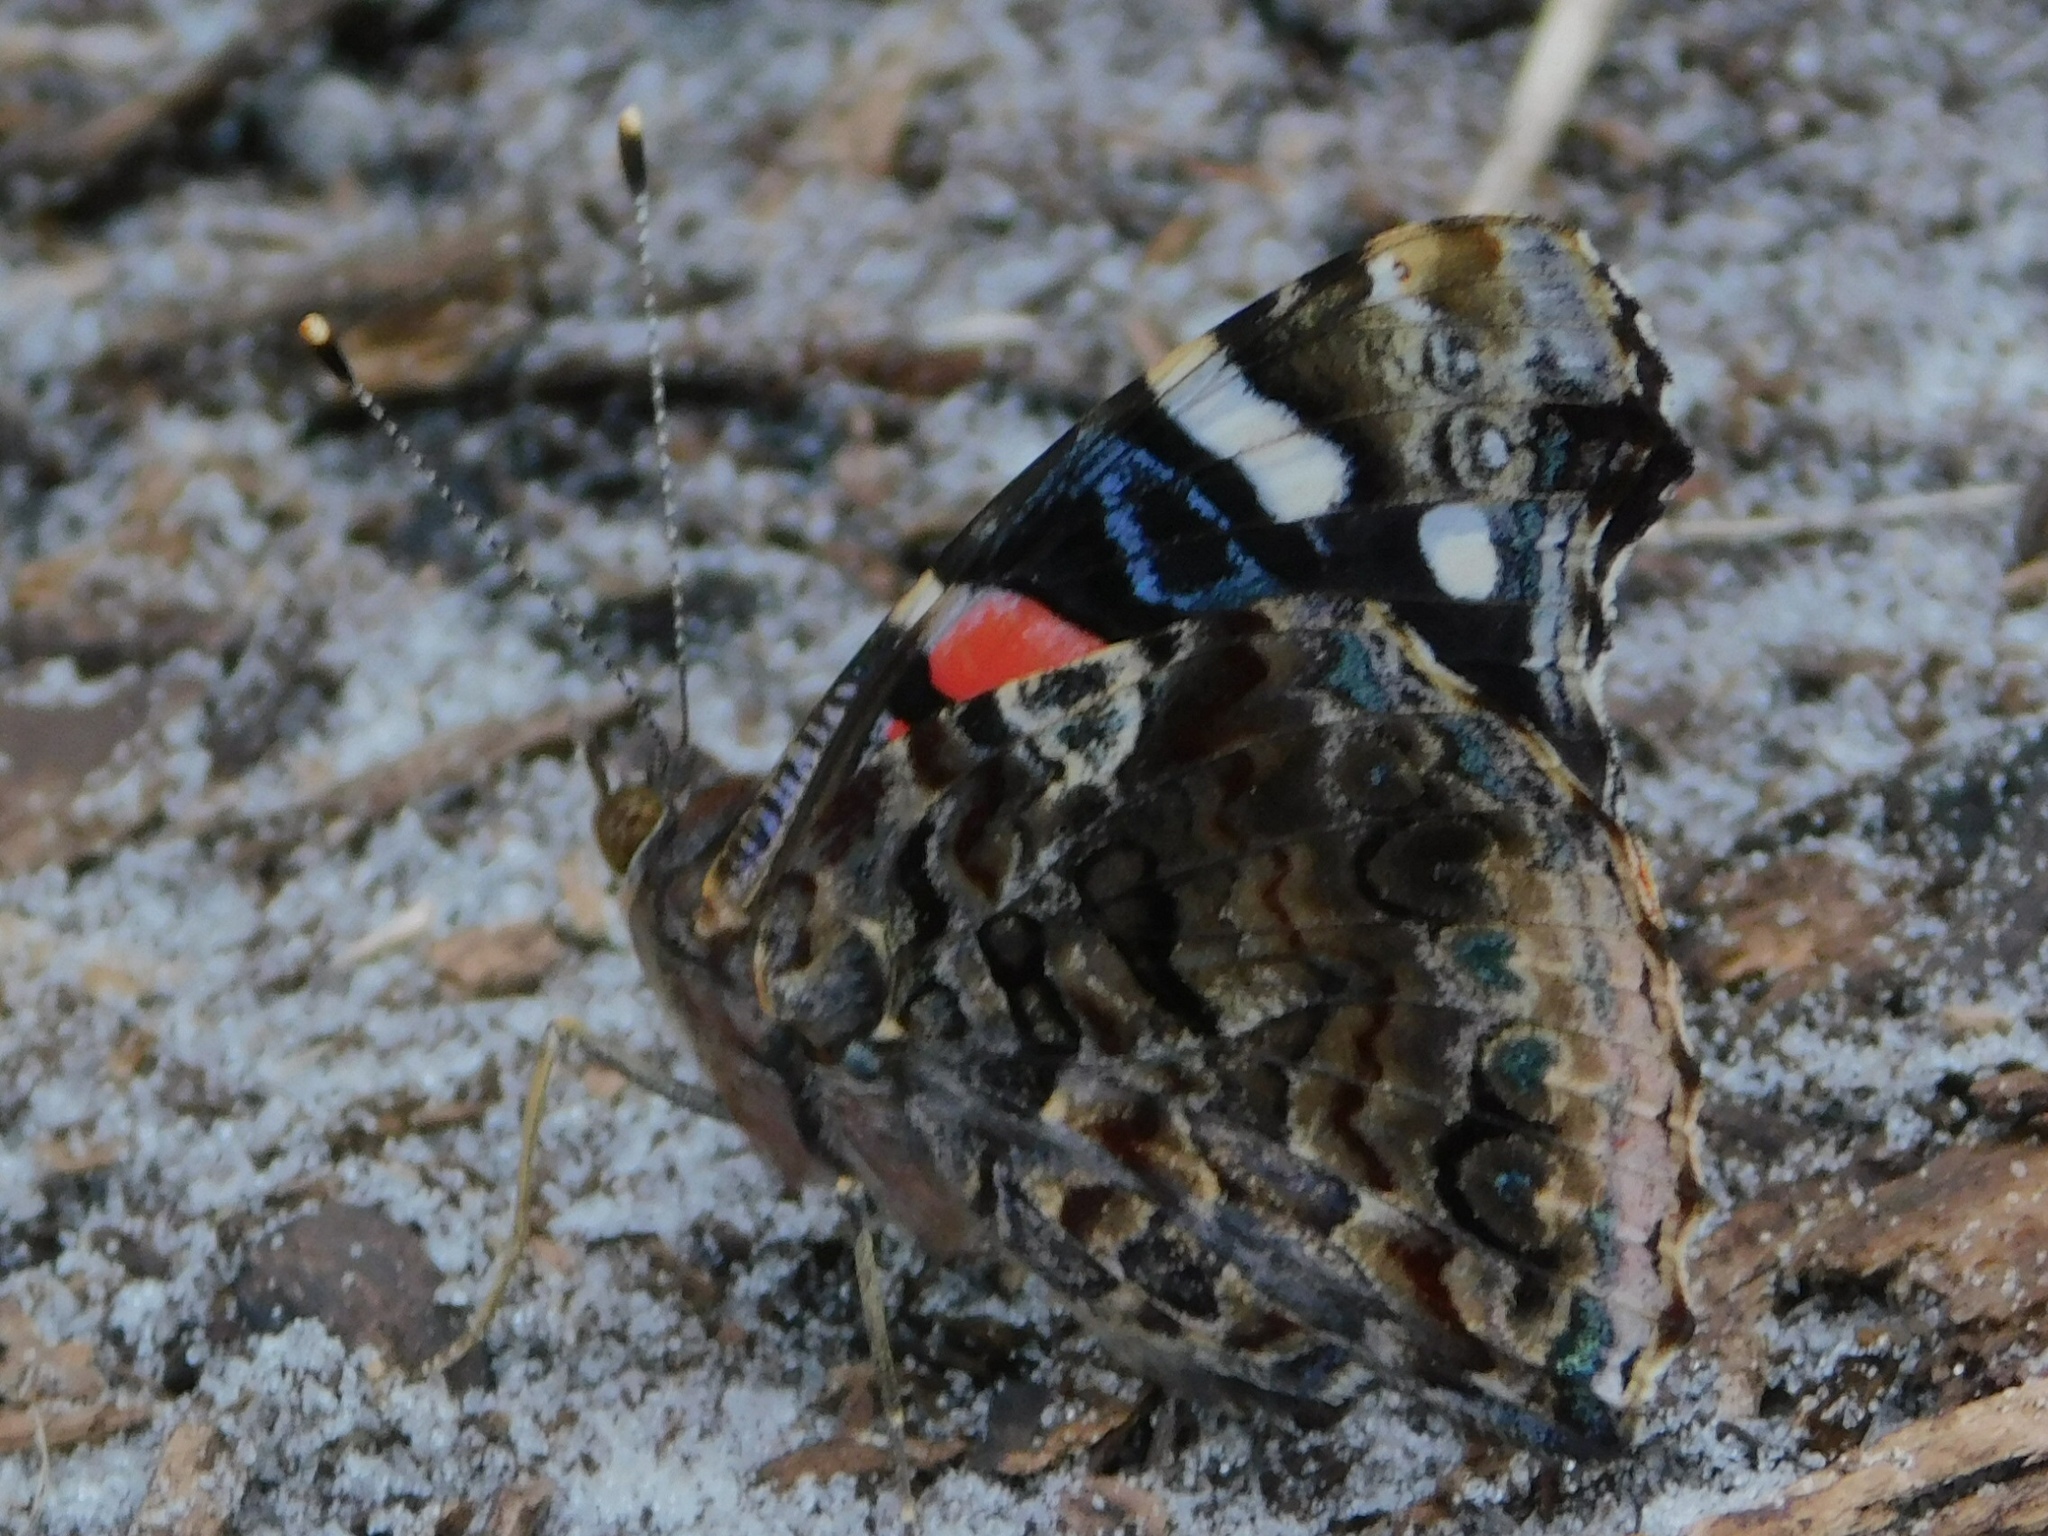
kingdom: Animalia
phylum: Arthropoda
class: Insecta
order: Lepidoptera
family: Nymphalidae
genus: Vanessa
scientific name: Vanessa atalanta
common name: Red admiral
